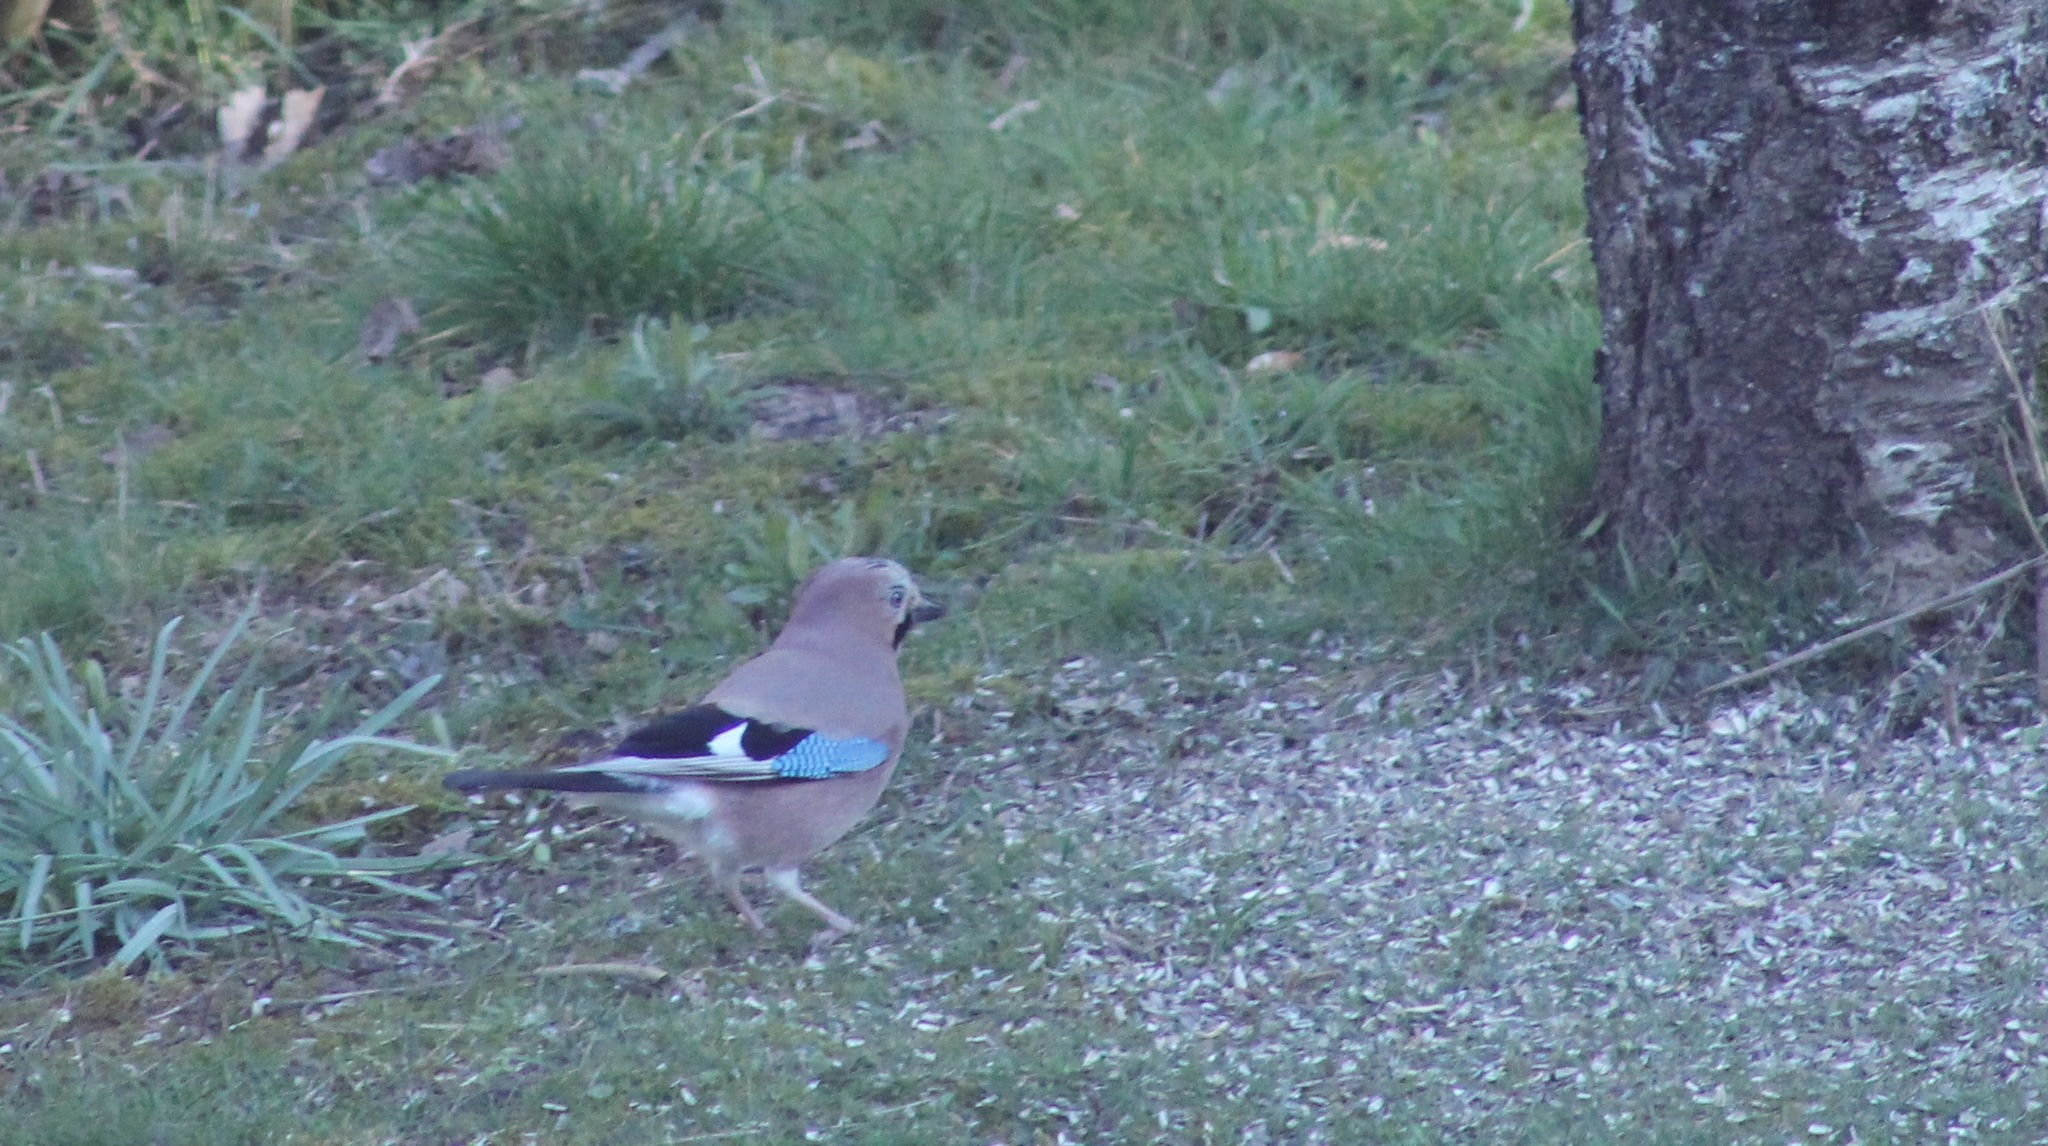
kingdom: Animalia
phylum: Chordata
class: Aves
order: Passeriformes
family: Corvidae
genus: Garrulus
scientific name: Garrulus glandarius
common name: Eurasian jay
